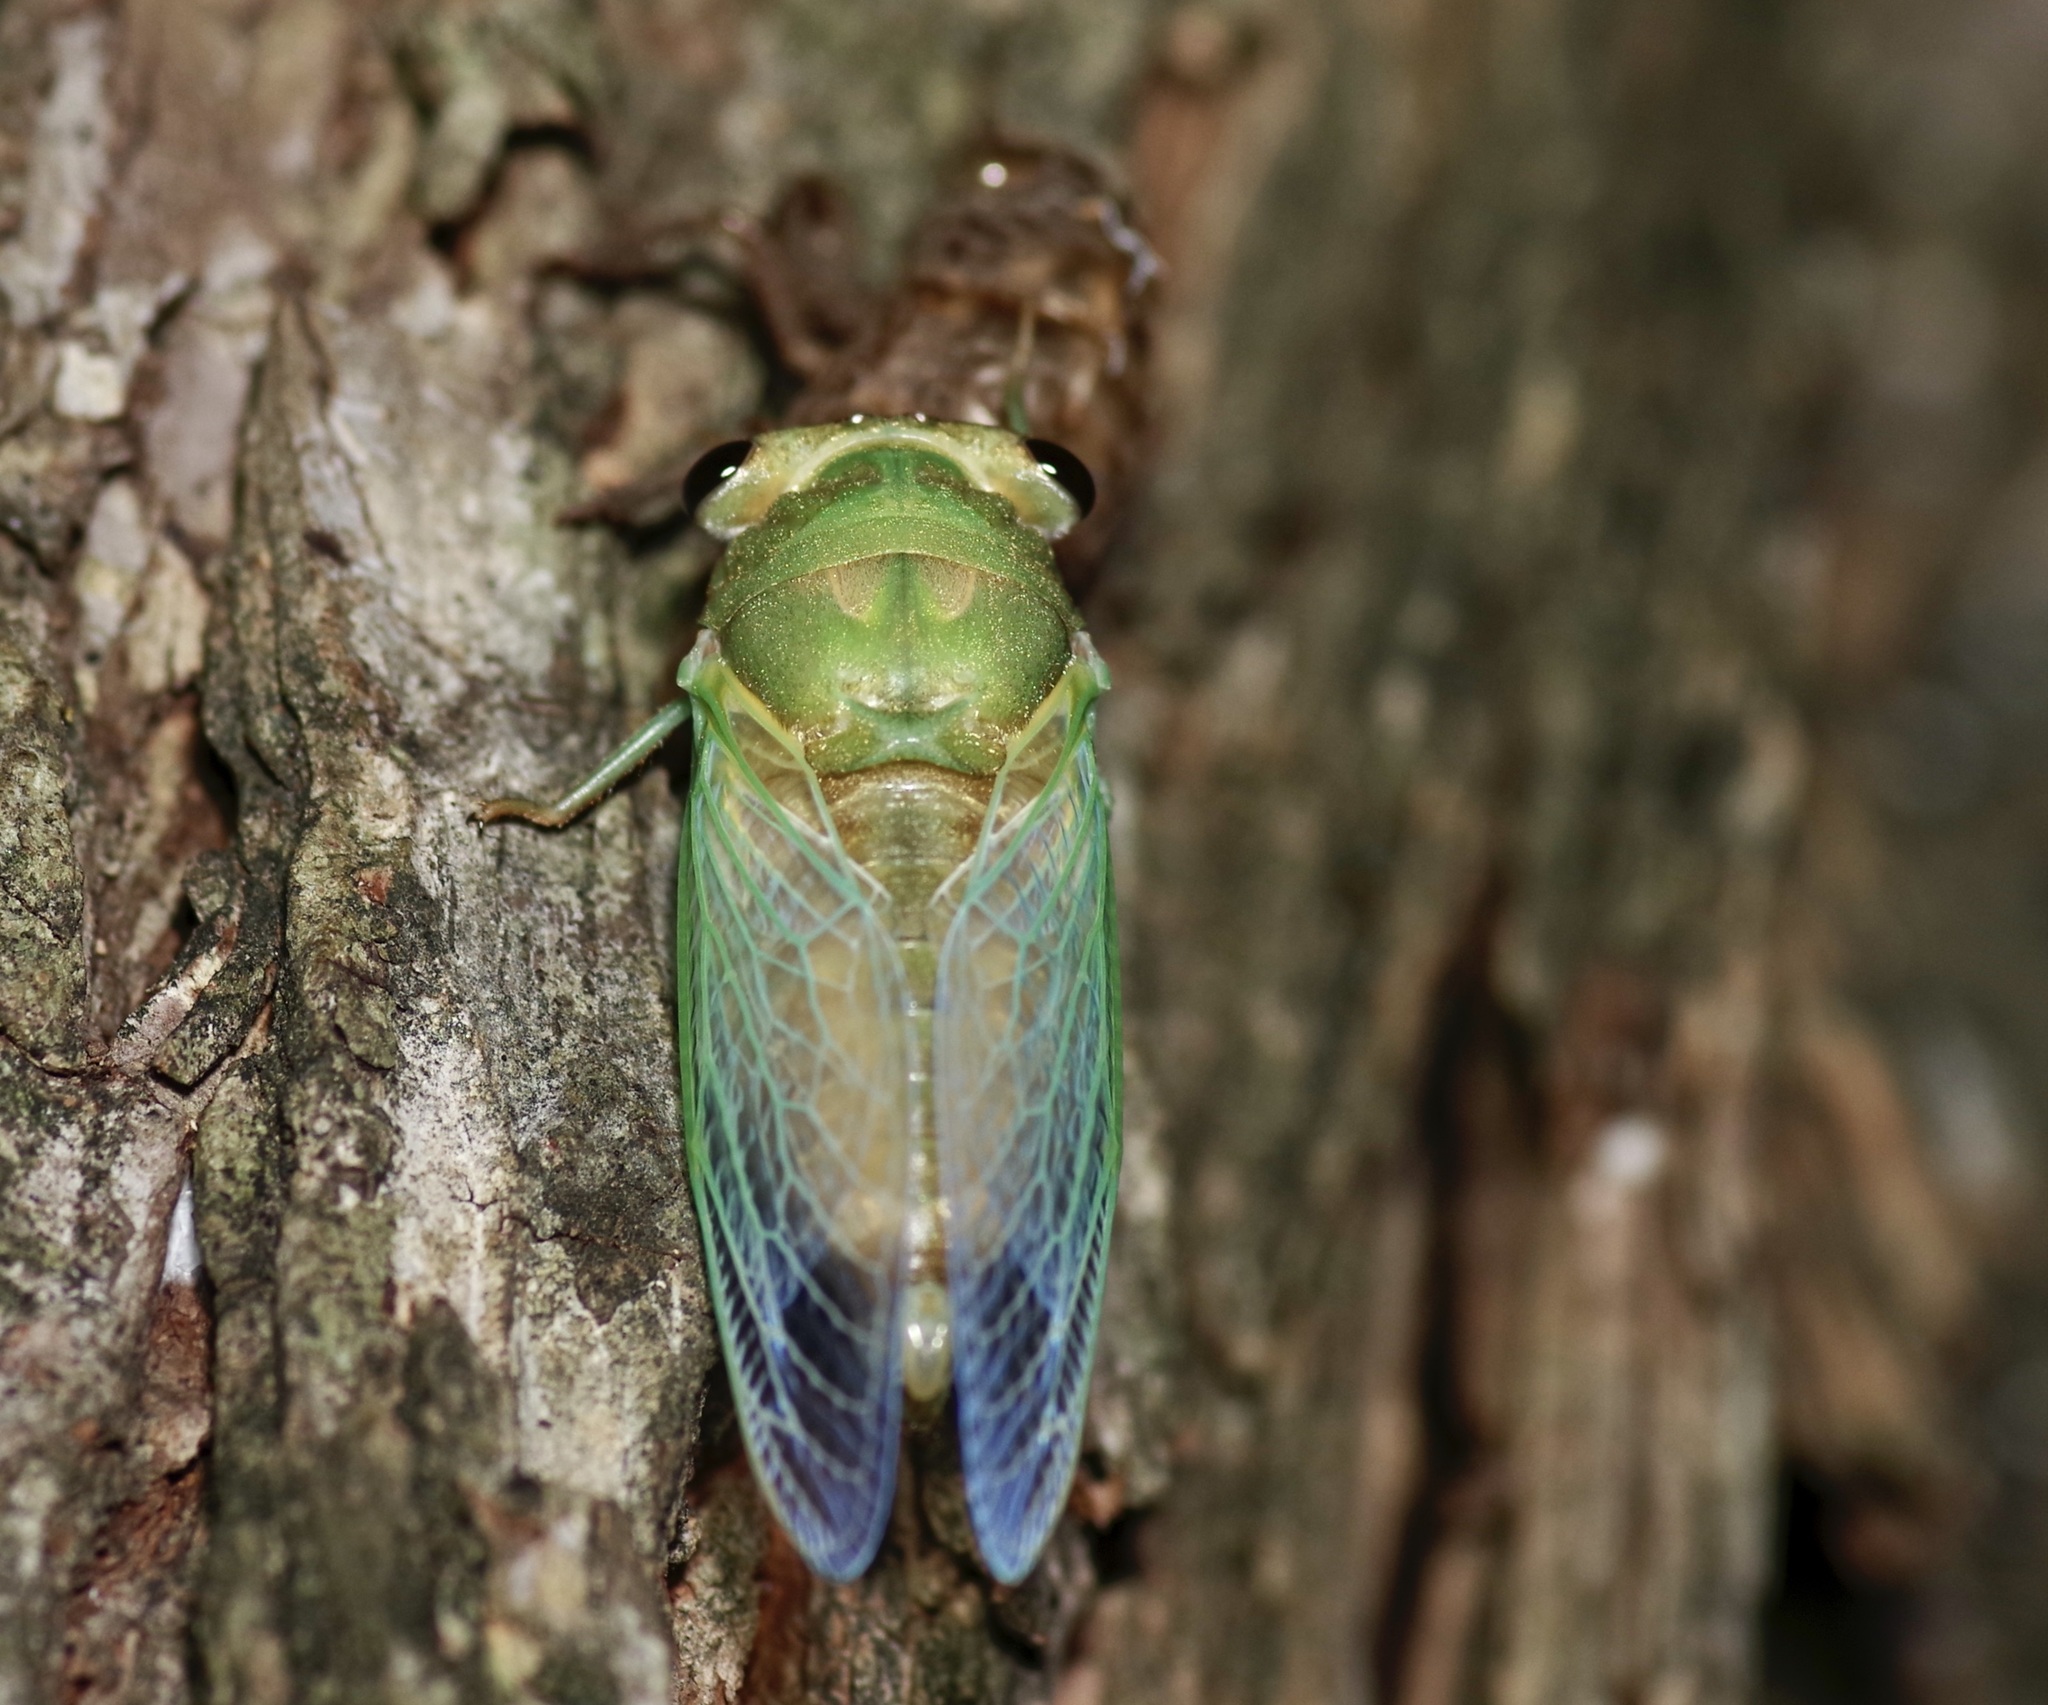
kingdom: Animalia
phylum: Arthropoda
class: Insecta
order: Hemiptera
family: Cicadidae
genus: Neotibicen
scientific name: Neotibicen superbus
